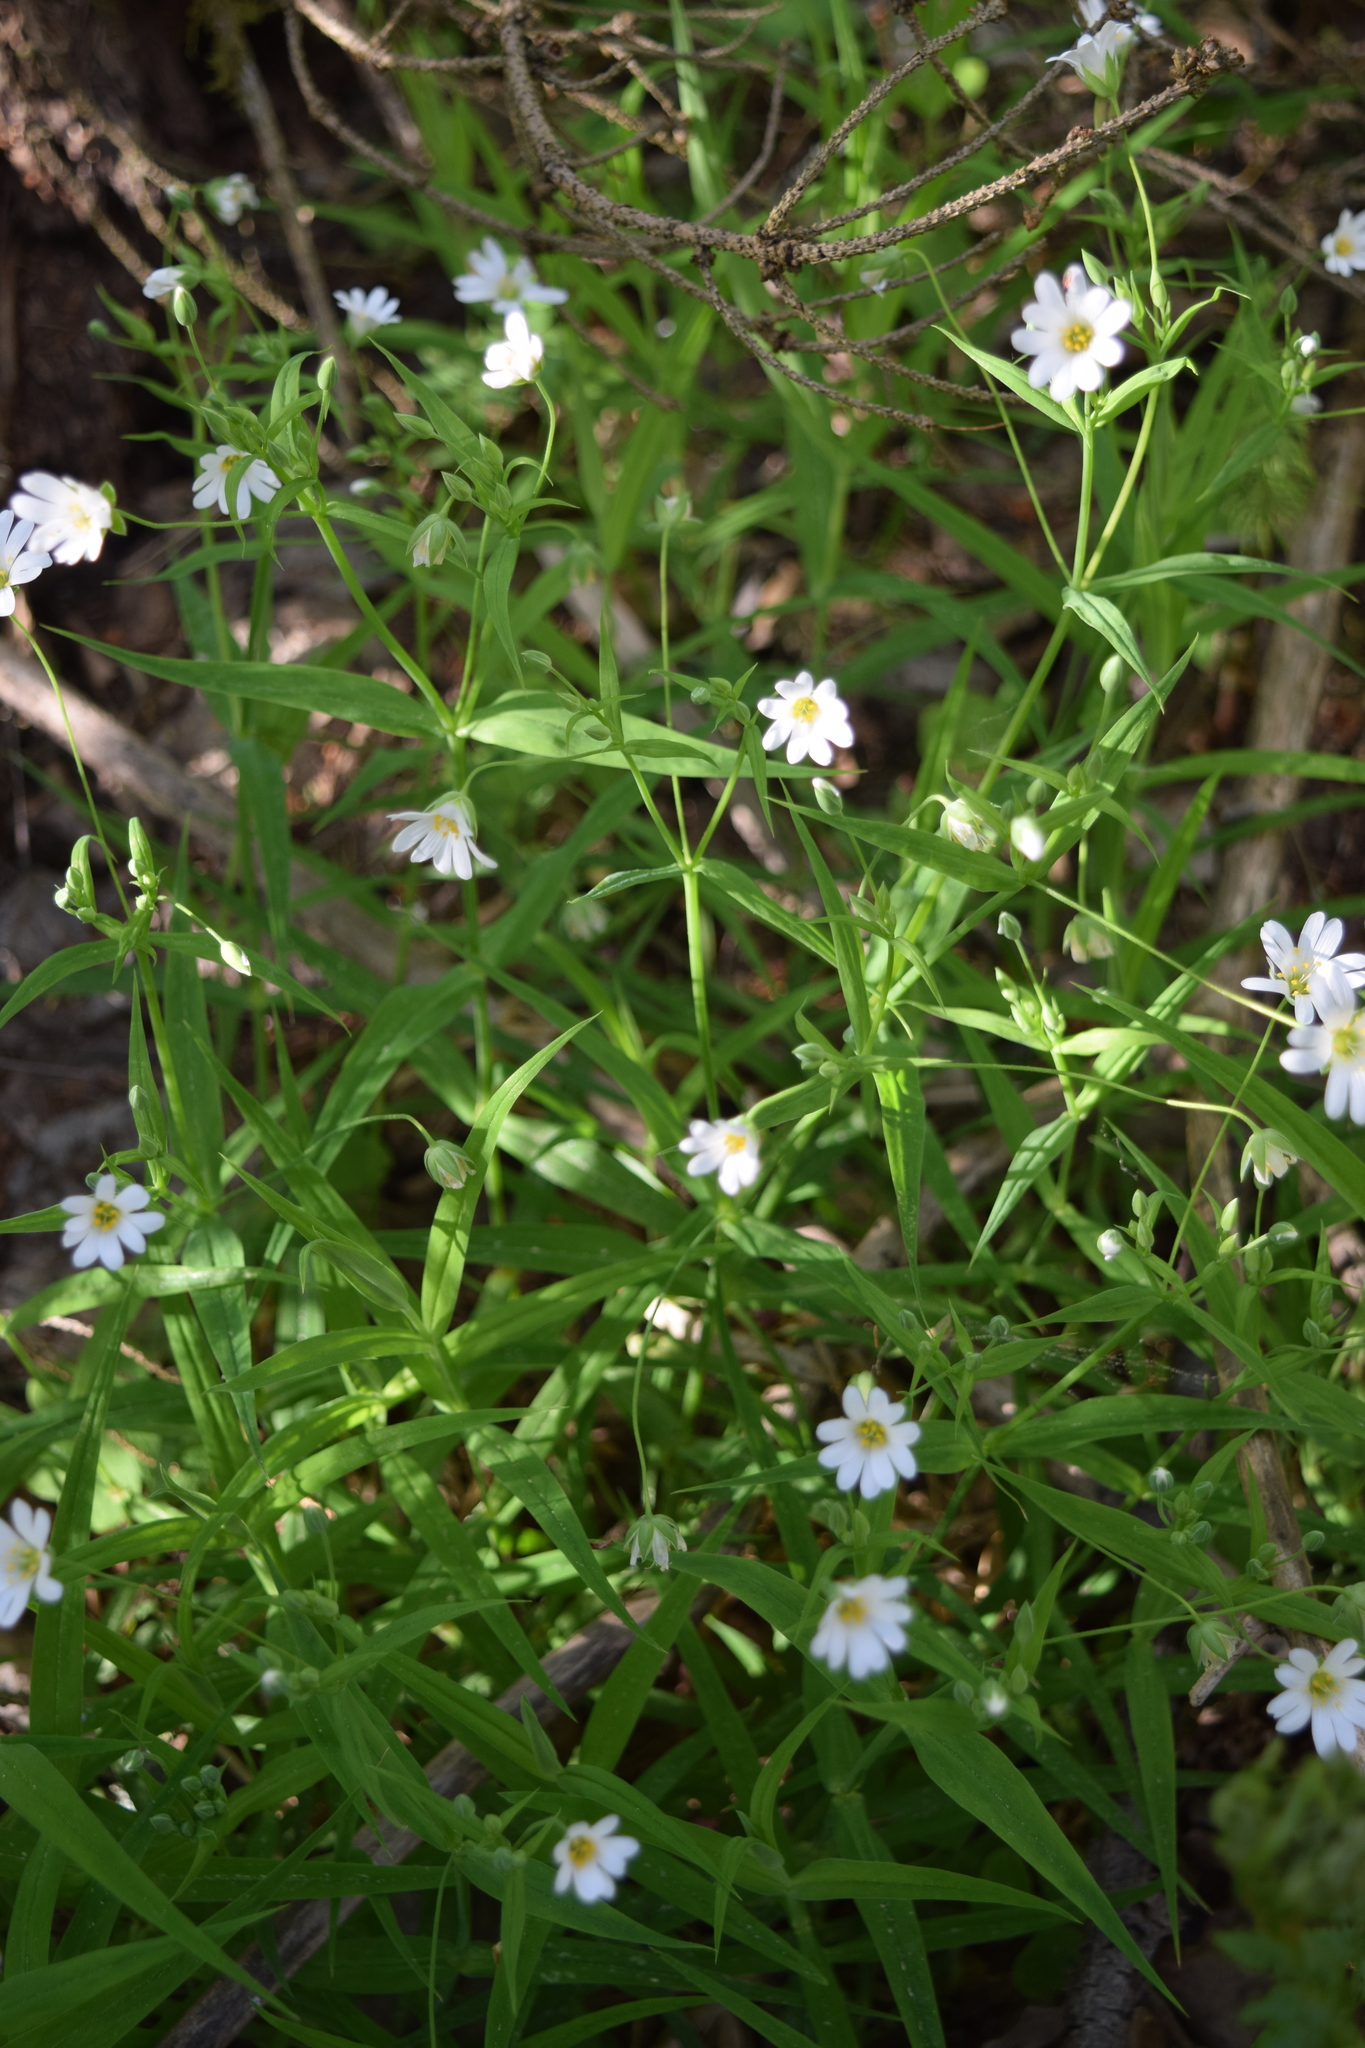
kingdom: Plantae
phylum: Tracheophyta
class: Magnoliopsida
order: Caryophyllales
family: Caryophyllaceae
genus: Rabelera
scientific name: Rabelera holostea
